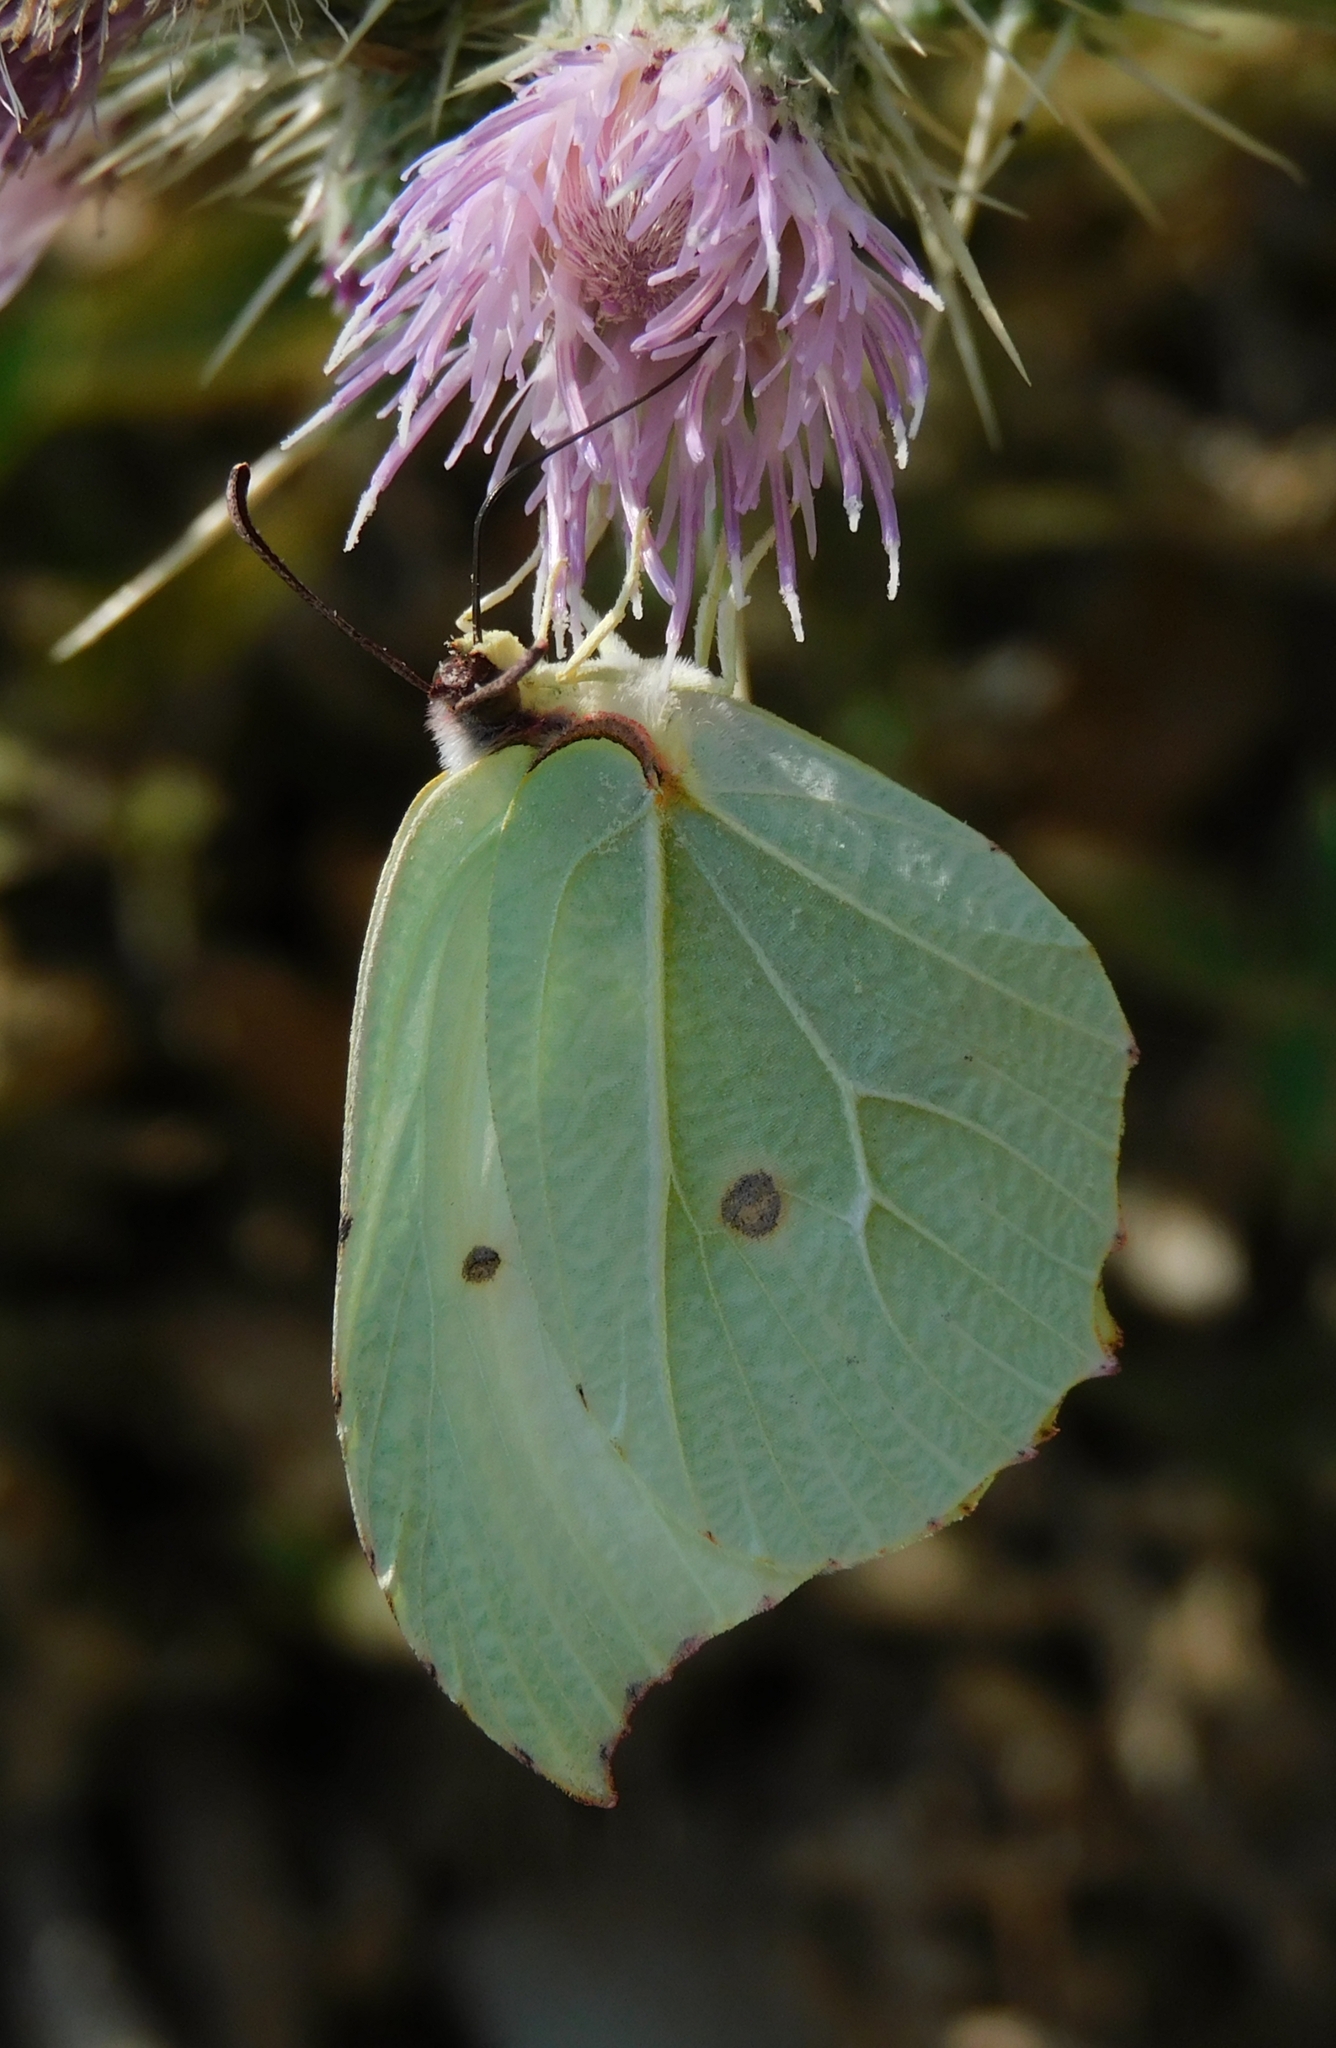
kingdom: Animalia
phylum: Arthropoda
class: Insecta
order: Lepidoptera
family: Pieridae
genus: Gonepteryx
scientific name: Gonepteryx
